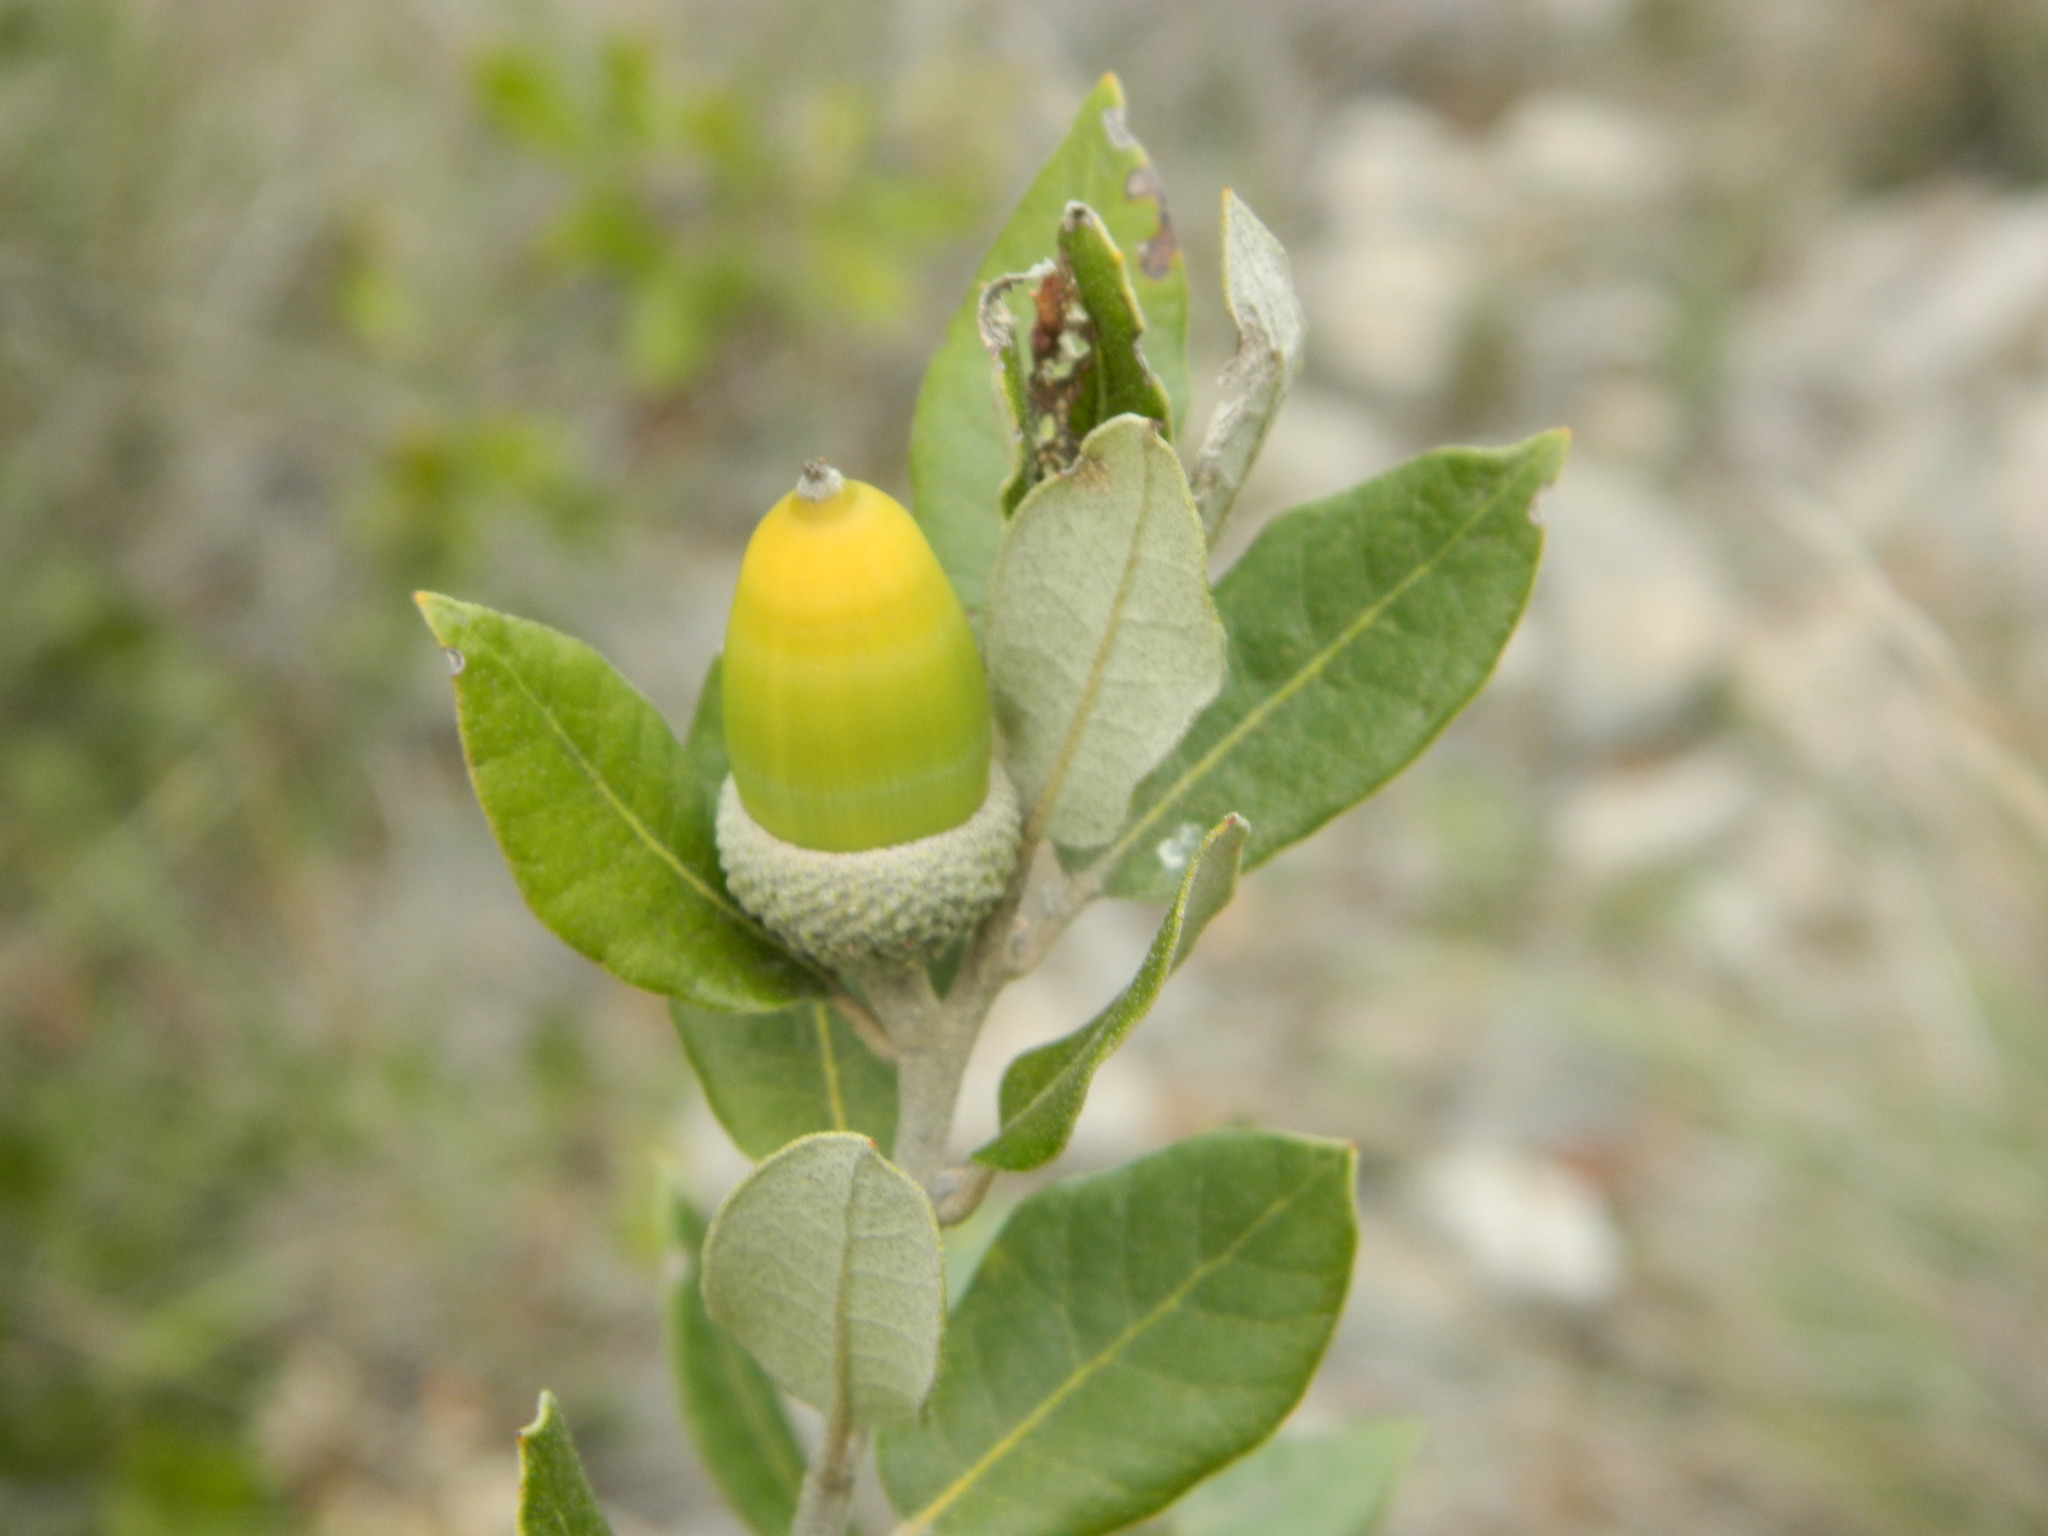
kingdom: Plantae
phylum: Tracheophyta
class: Magnoliopsida
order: Fagales
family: Fagaceae
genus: Quercus
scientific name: Quercus ilex
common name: Evergreen oak
